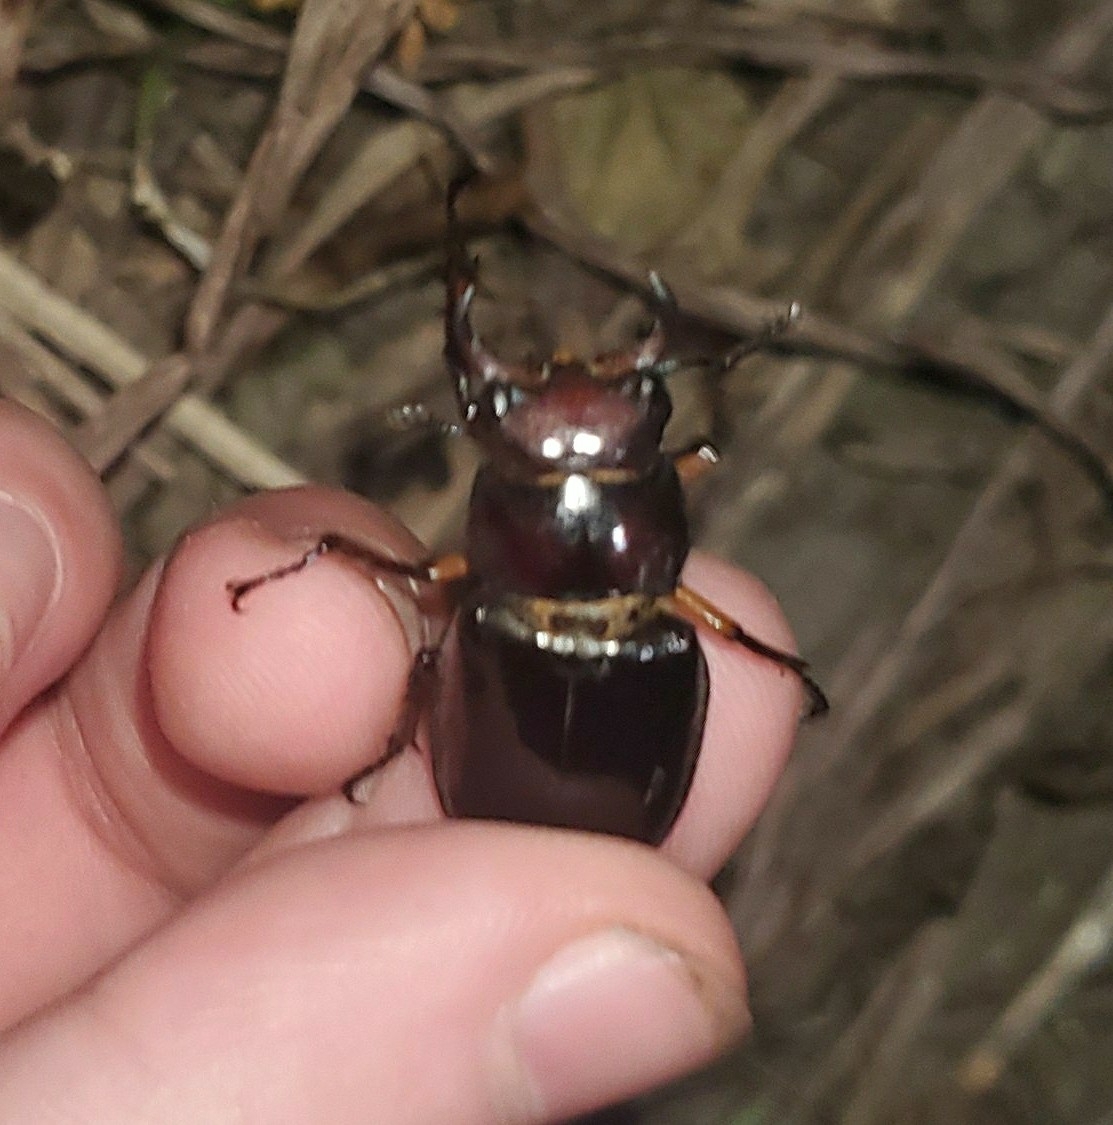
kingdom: Animalia
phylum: Arthropoda
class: Insecta
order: Coleoptera
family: Lucanidae
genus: Lucanus
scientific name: Lucanus capreolus
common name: Stag beetle
